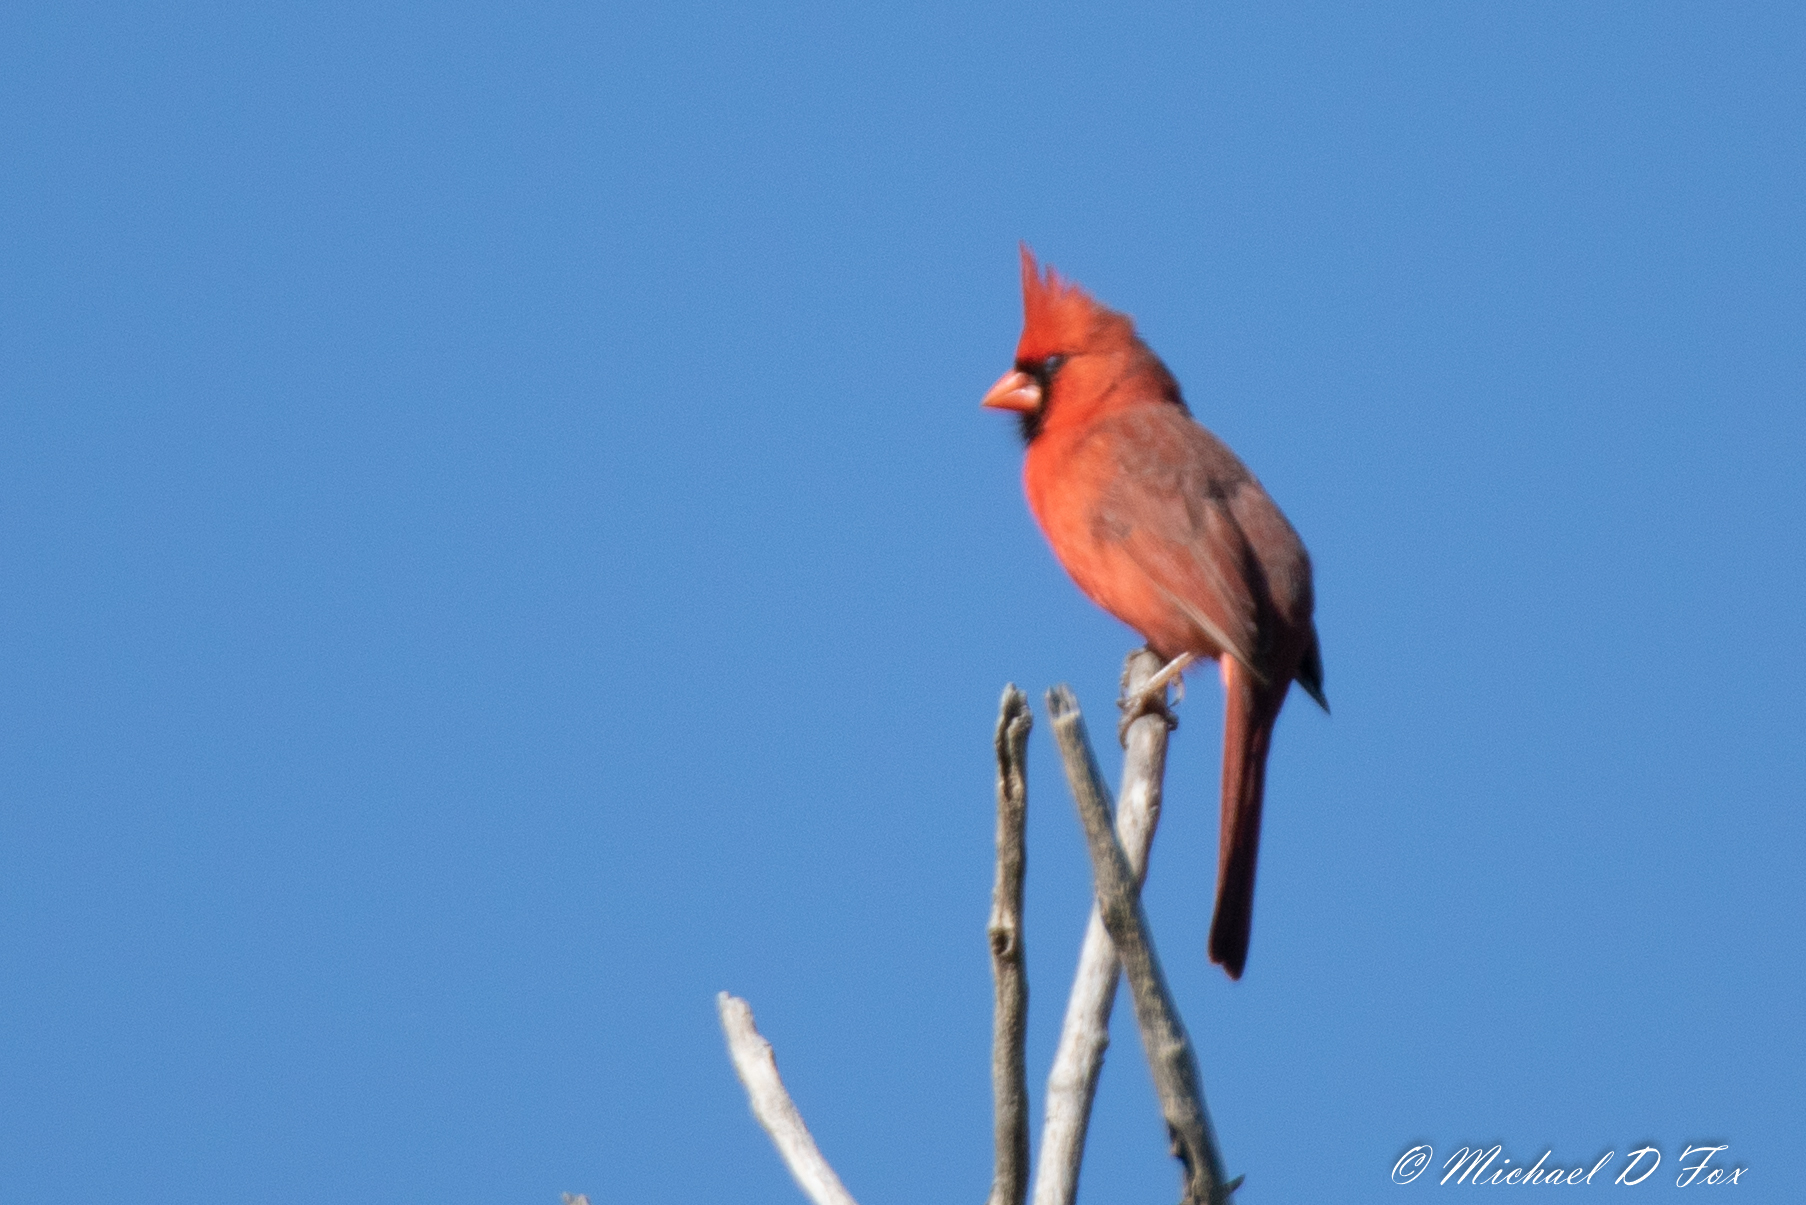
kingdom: Animalia
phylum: Chordata
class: Aves
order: Passeriformes
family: Cardinalidae
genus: Cardinalis
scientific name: Cardinalis cardinalis
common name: Northern cardinal
